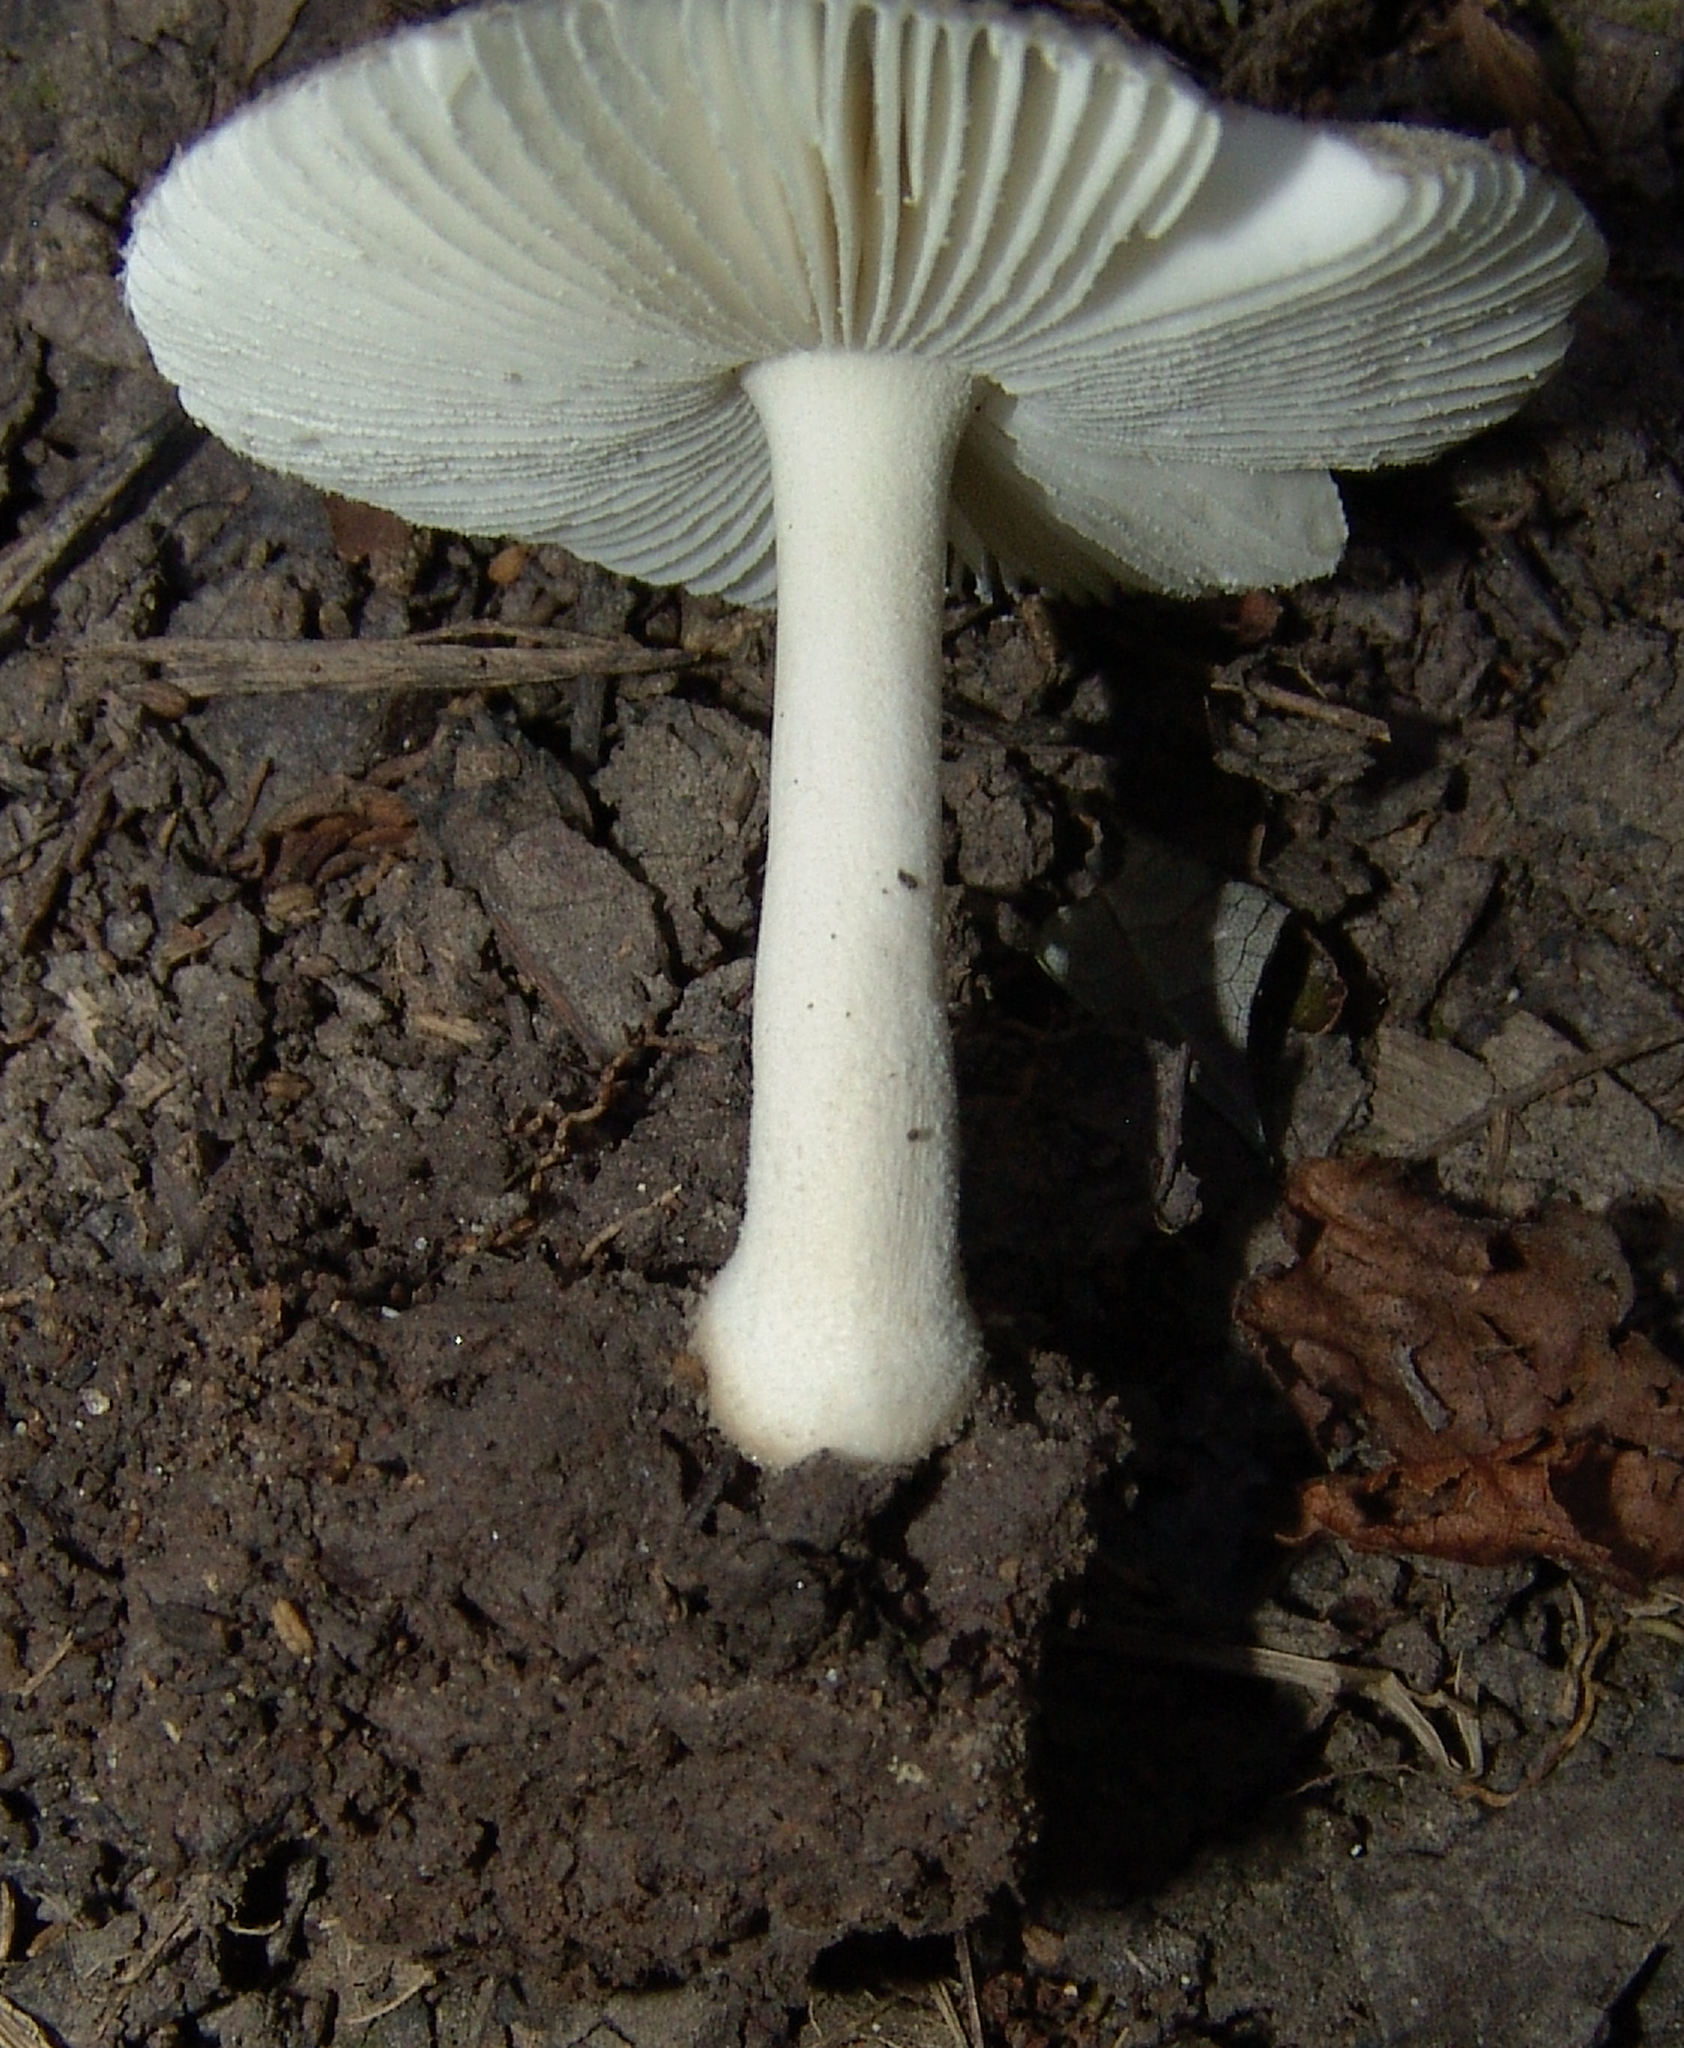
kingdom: Fungi
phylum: Basidiomycota
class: Agaricomycetes
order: Agaricales
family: Amanitaceae
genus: Amanita
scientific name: Amanita farinosa
